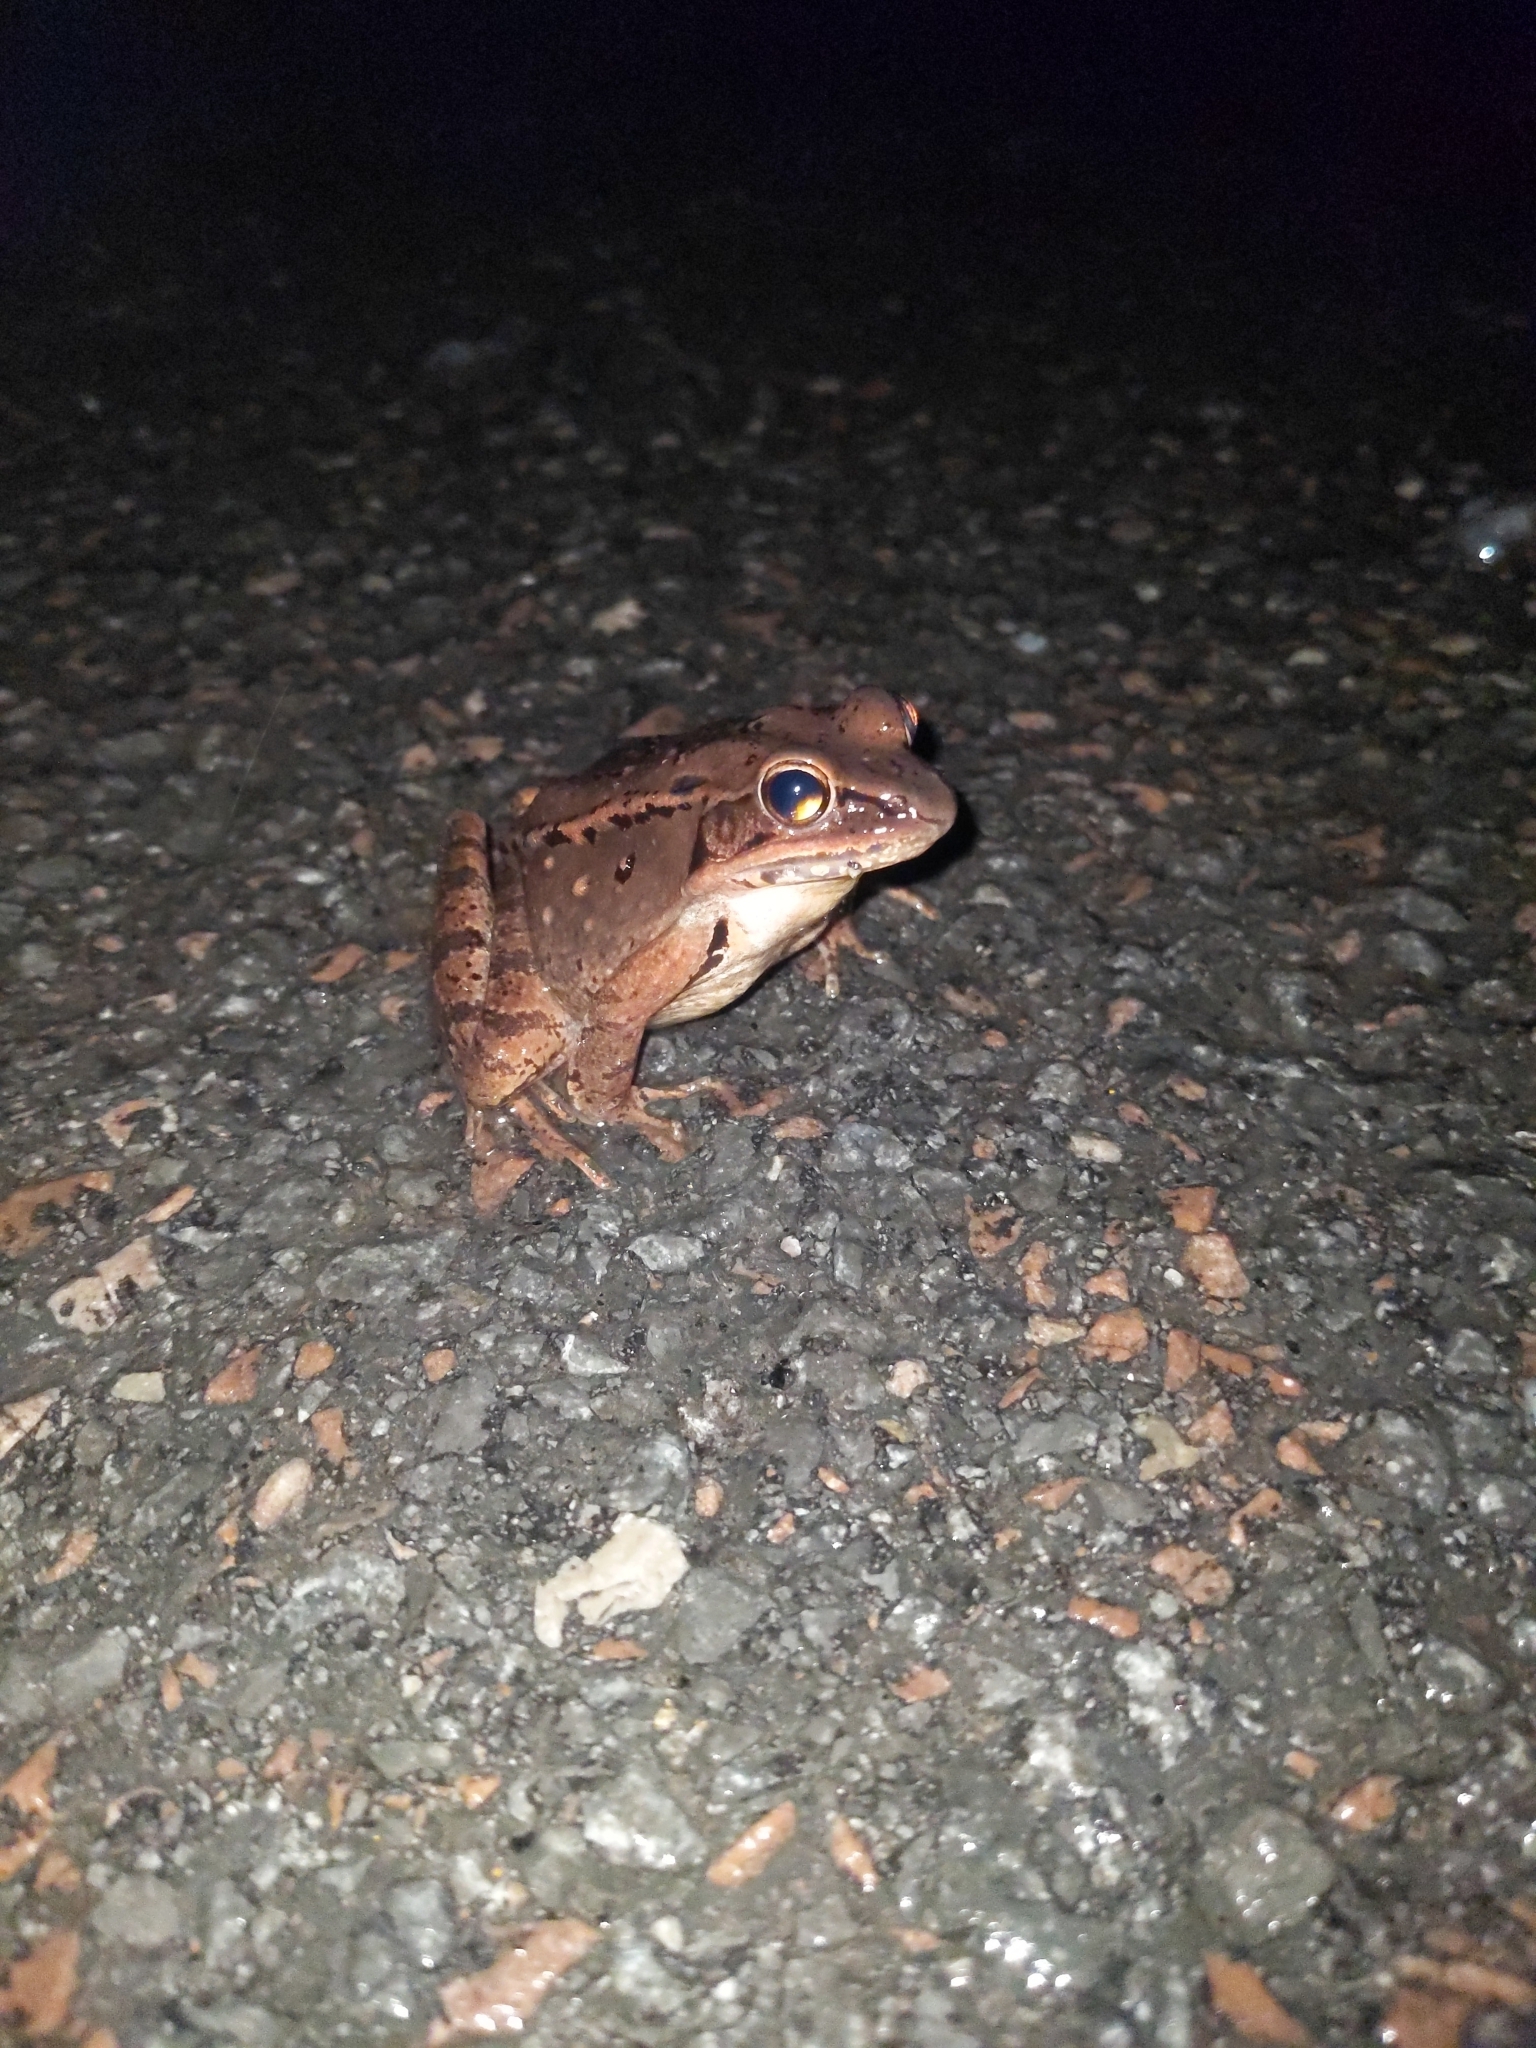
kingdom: Animalia
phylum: Chordata
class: Amphibia
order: Anura
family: Ranidae
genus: Lithobates
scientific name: Lithobates sylvaticus
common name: Wood frog
